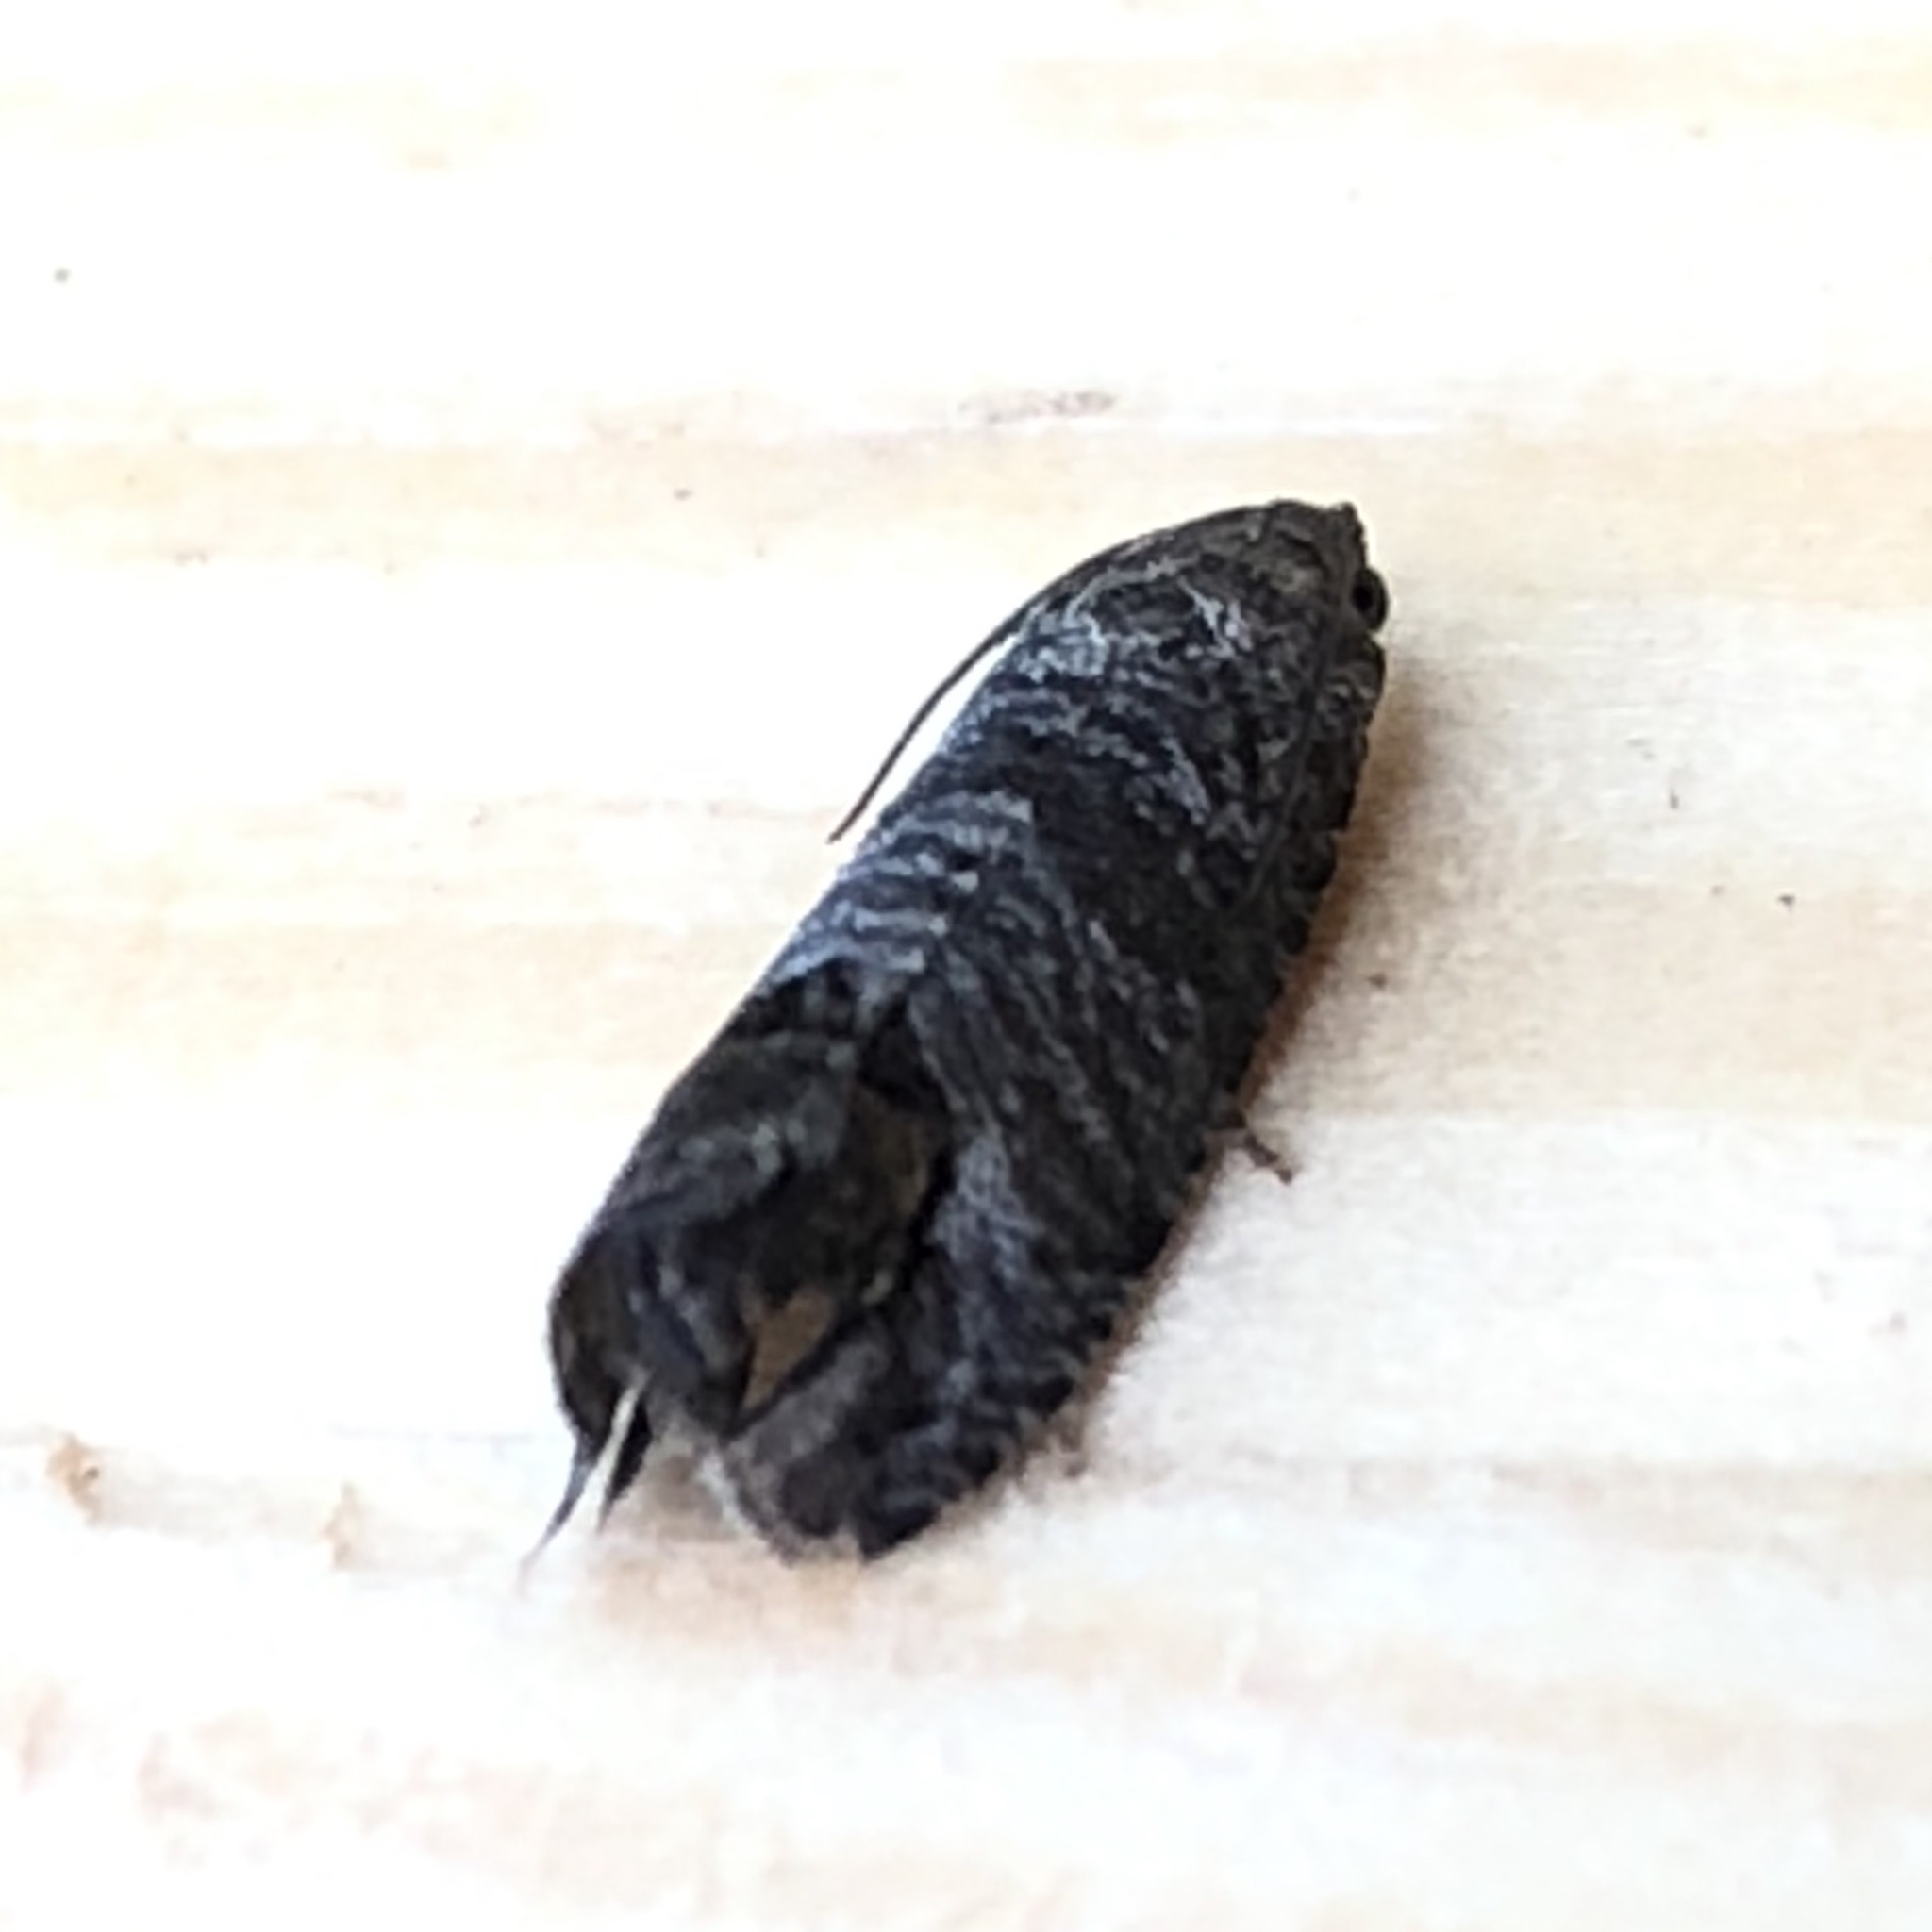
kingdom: Animalia
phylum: Arthropoda
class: Insecta
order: Lepidoptera
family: Tortricidae
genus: Cydia
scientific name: Cydia pomonella
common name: Codling moth
